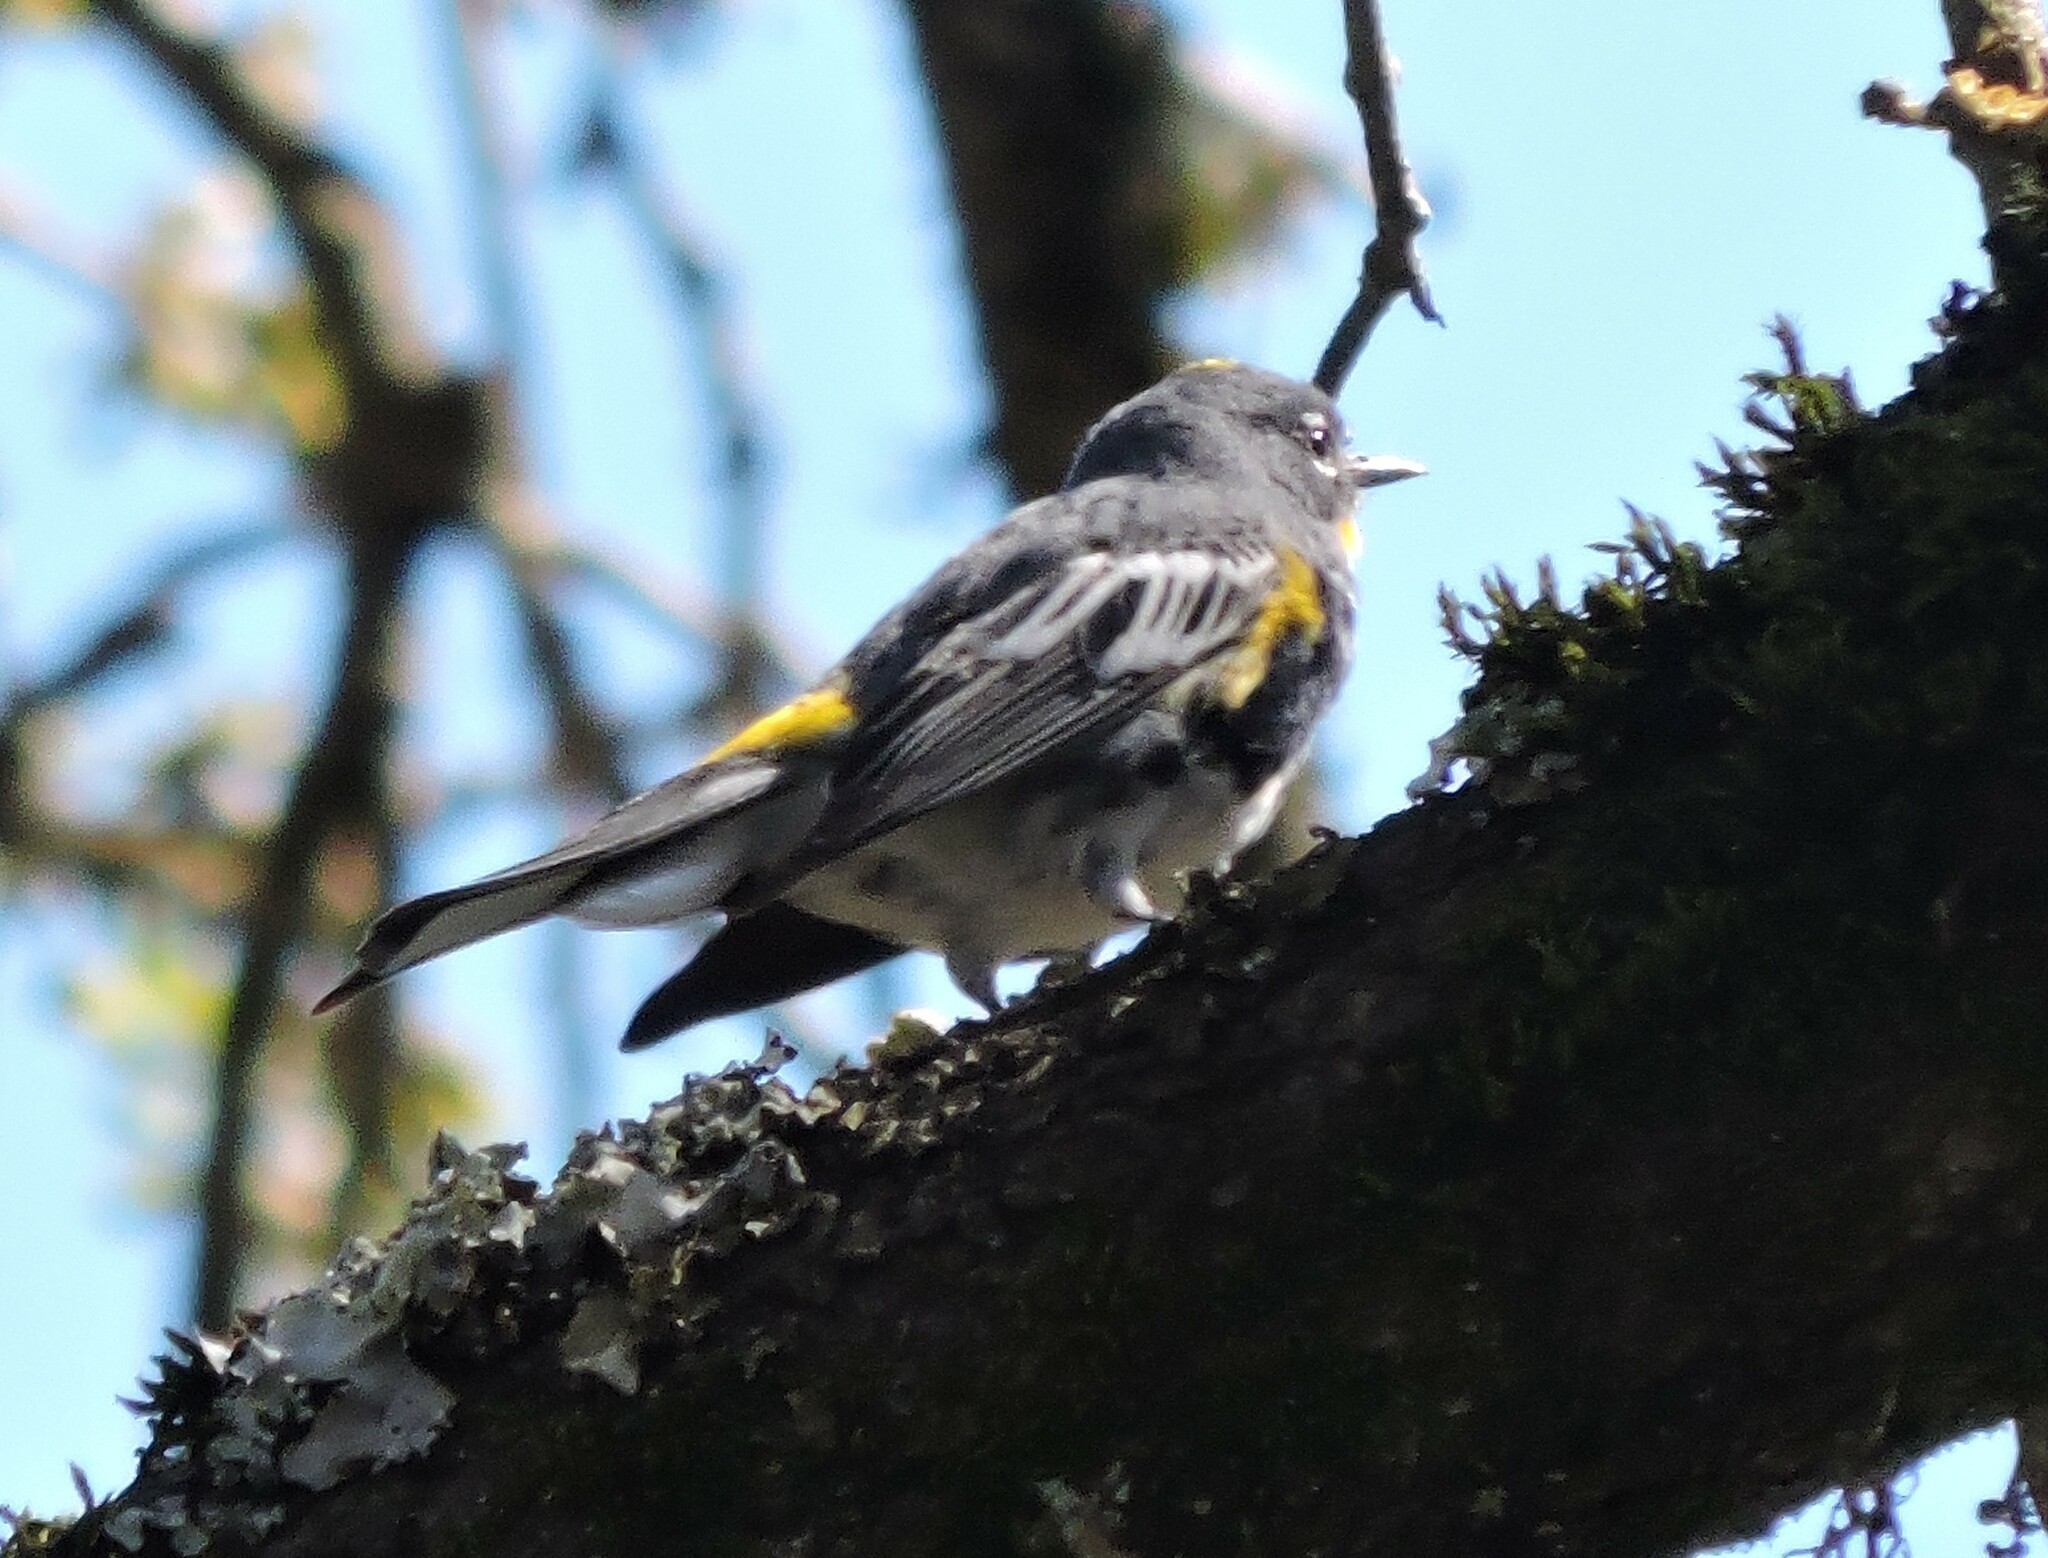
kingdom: Animalia
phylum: Chordata
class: Aves
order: Passeriformes
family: Parulidae
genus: Setophaga
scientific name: Setophaga coronata
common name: Myrtle warbler
